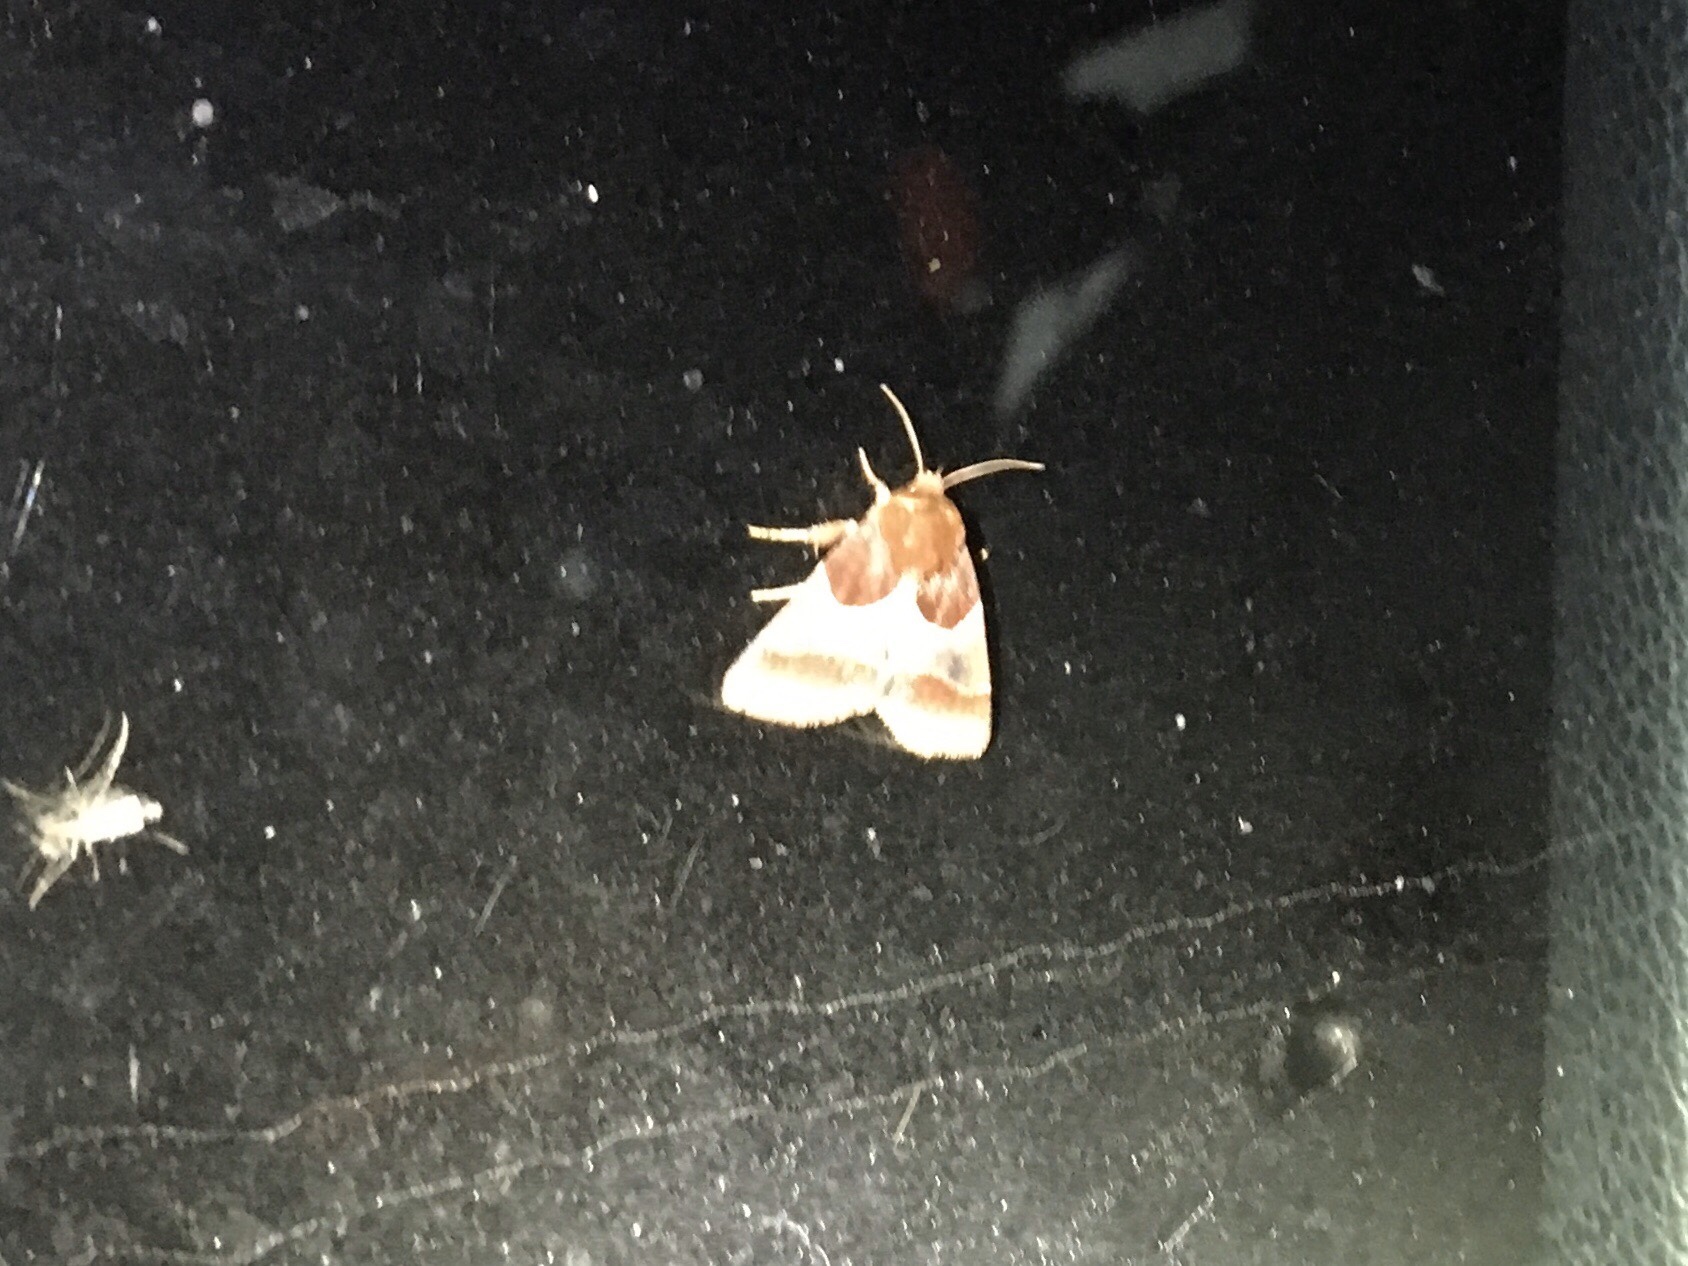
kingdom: Animalia
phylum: Arthropoda
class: Insecta
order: Lepidoptera
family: Noctuidae
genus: Schinia
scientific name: Schinia arcigera
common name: Arcigera flower moth
